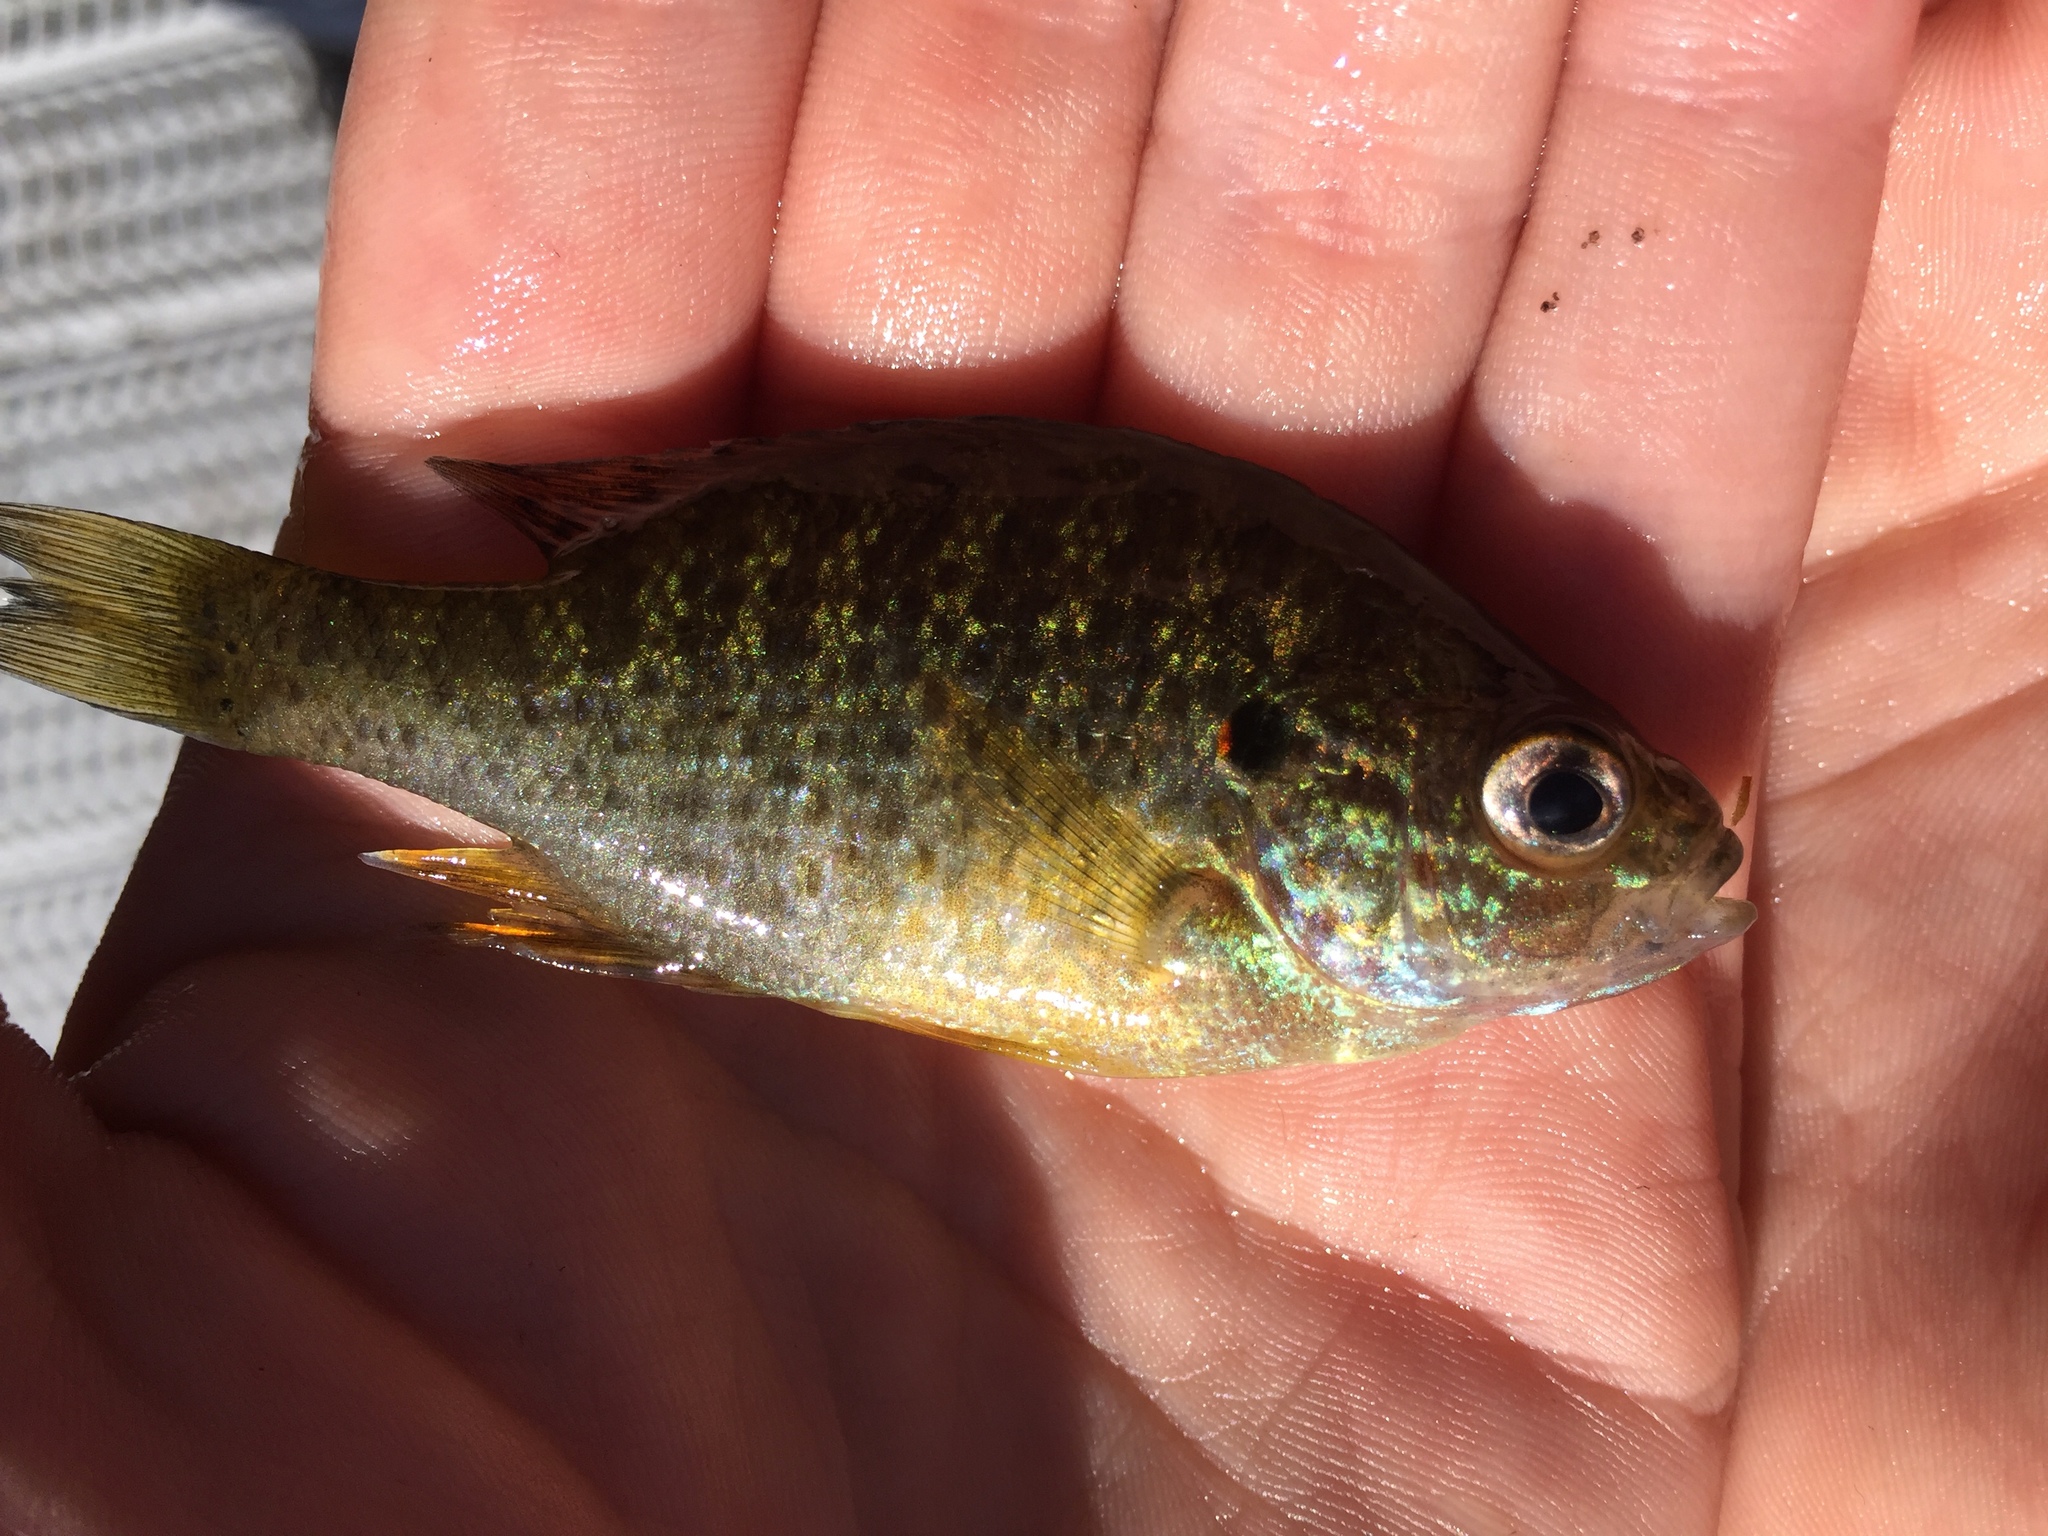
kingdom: Animalia
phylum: Chordata
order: Perciformes
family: Centrarchidae
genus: Lepomis
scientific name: Lepomis gibbosus
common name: Pumpkinseed
